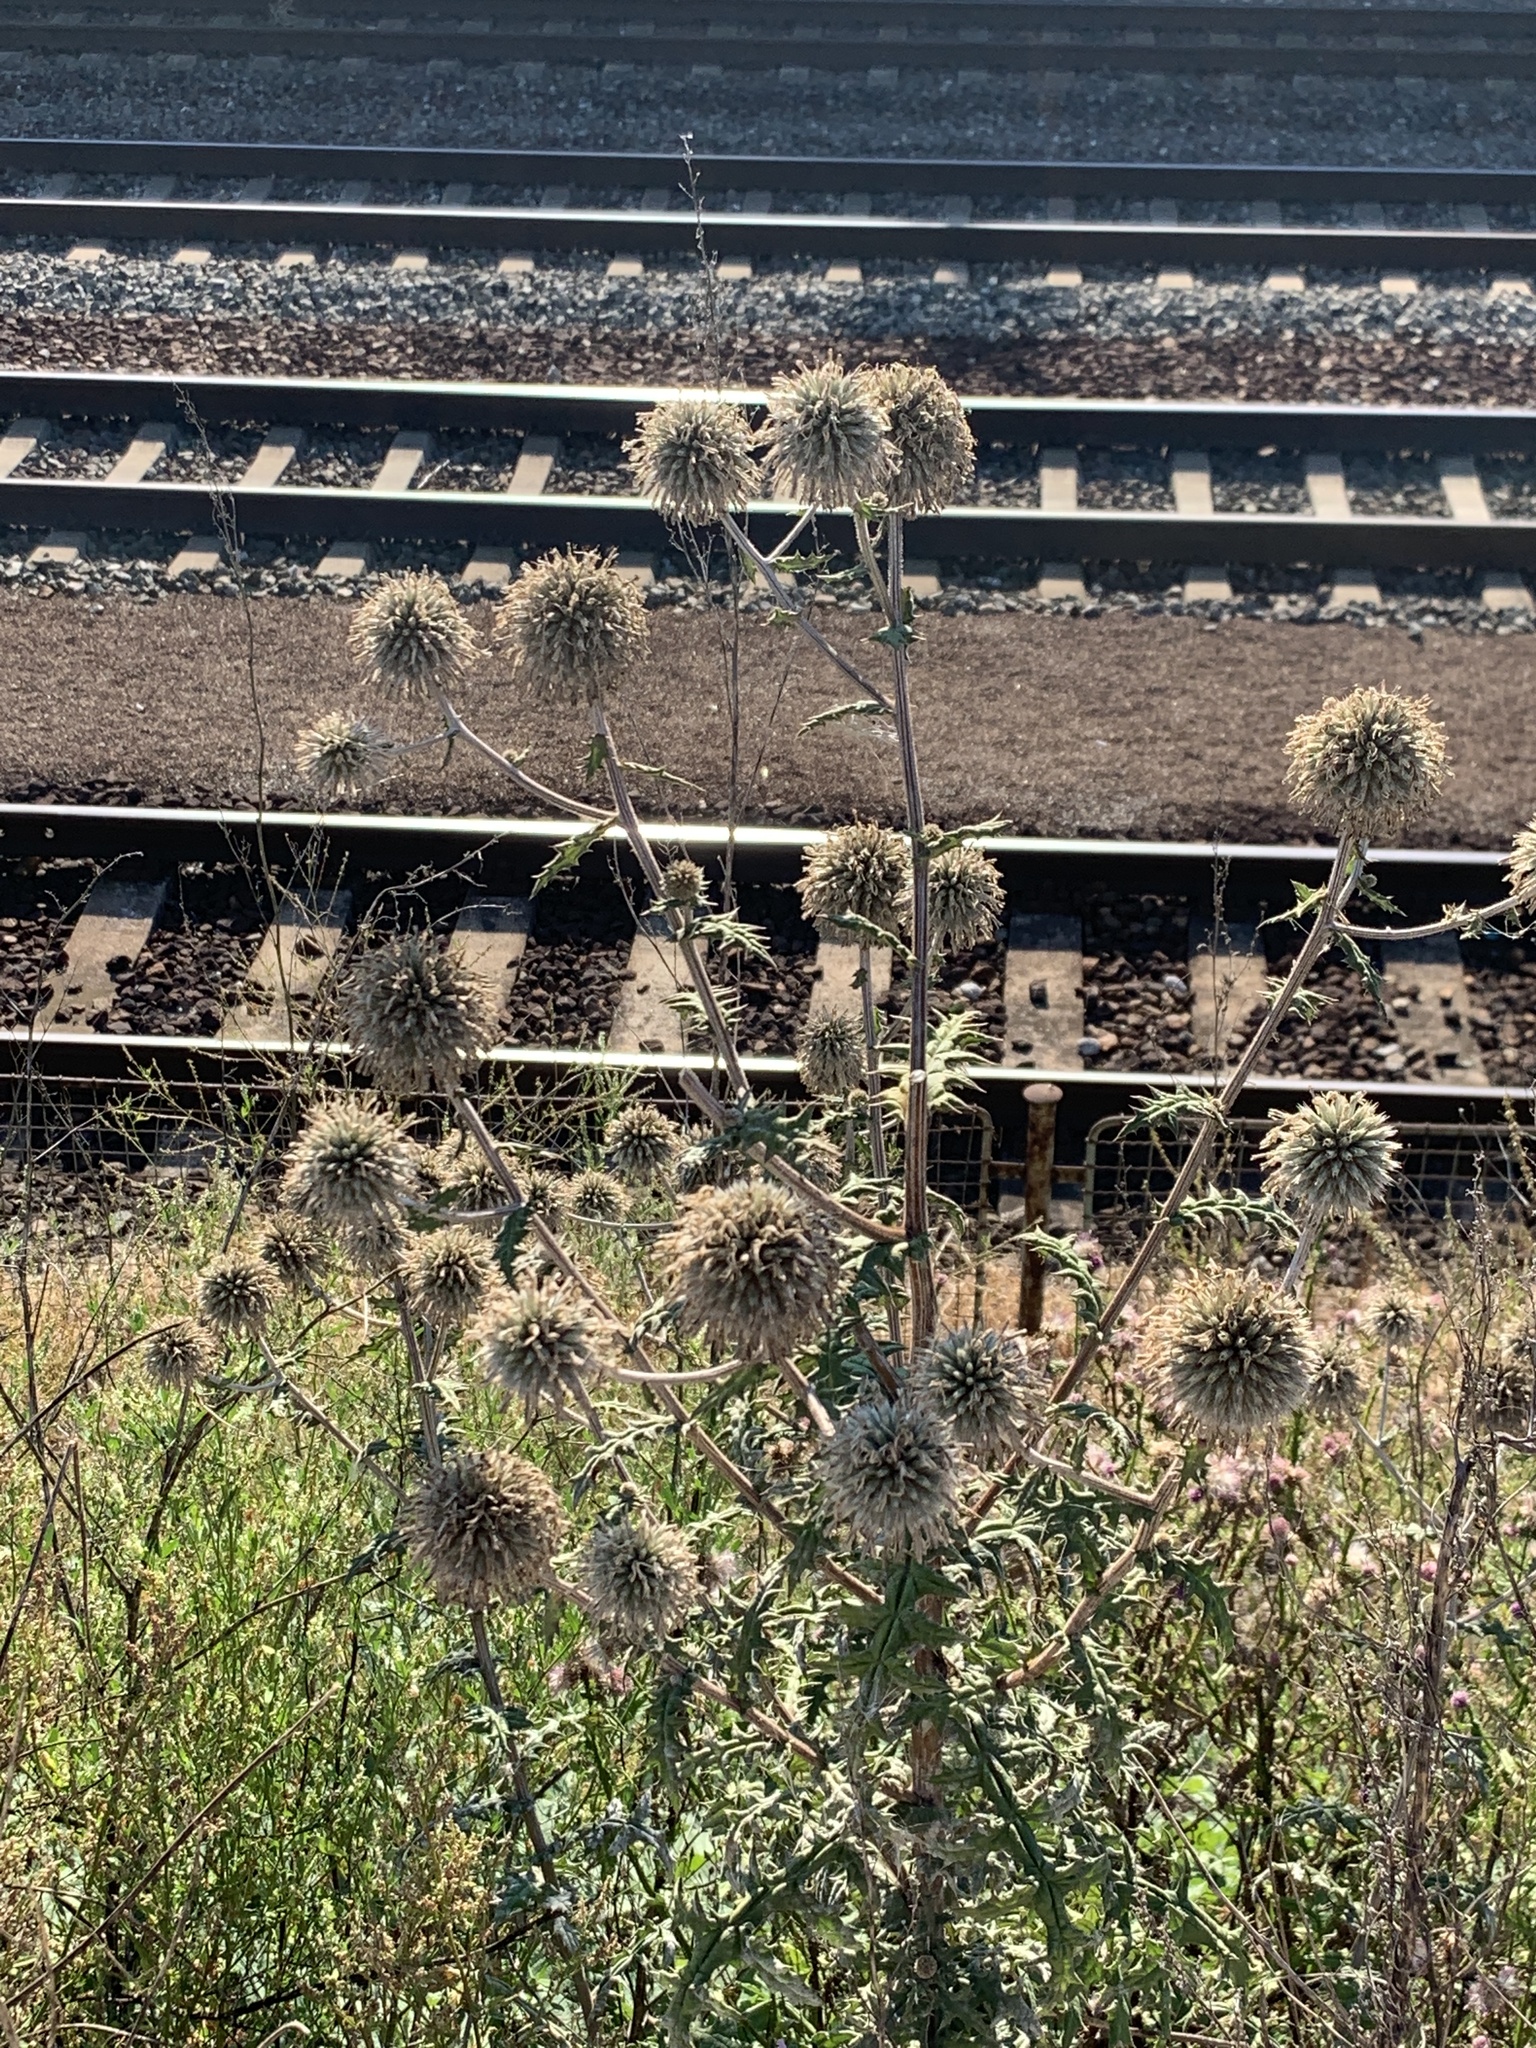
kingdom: Plantae
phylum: Tracheophyta
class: Magnoliopsida
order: Asterales
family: Asteraceae
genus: Echinops
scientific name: Echinops sphaerocephalus
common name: Glandular globe-thistle
